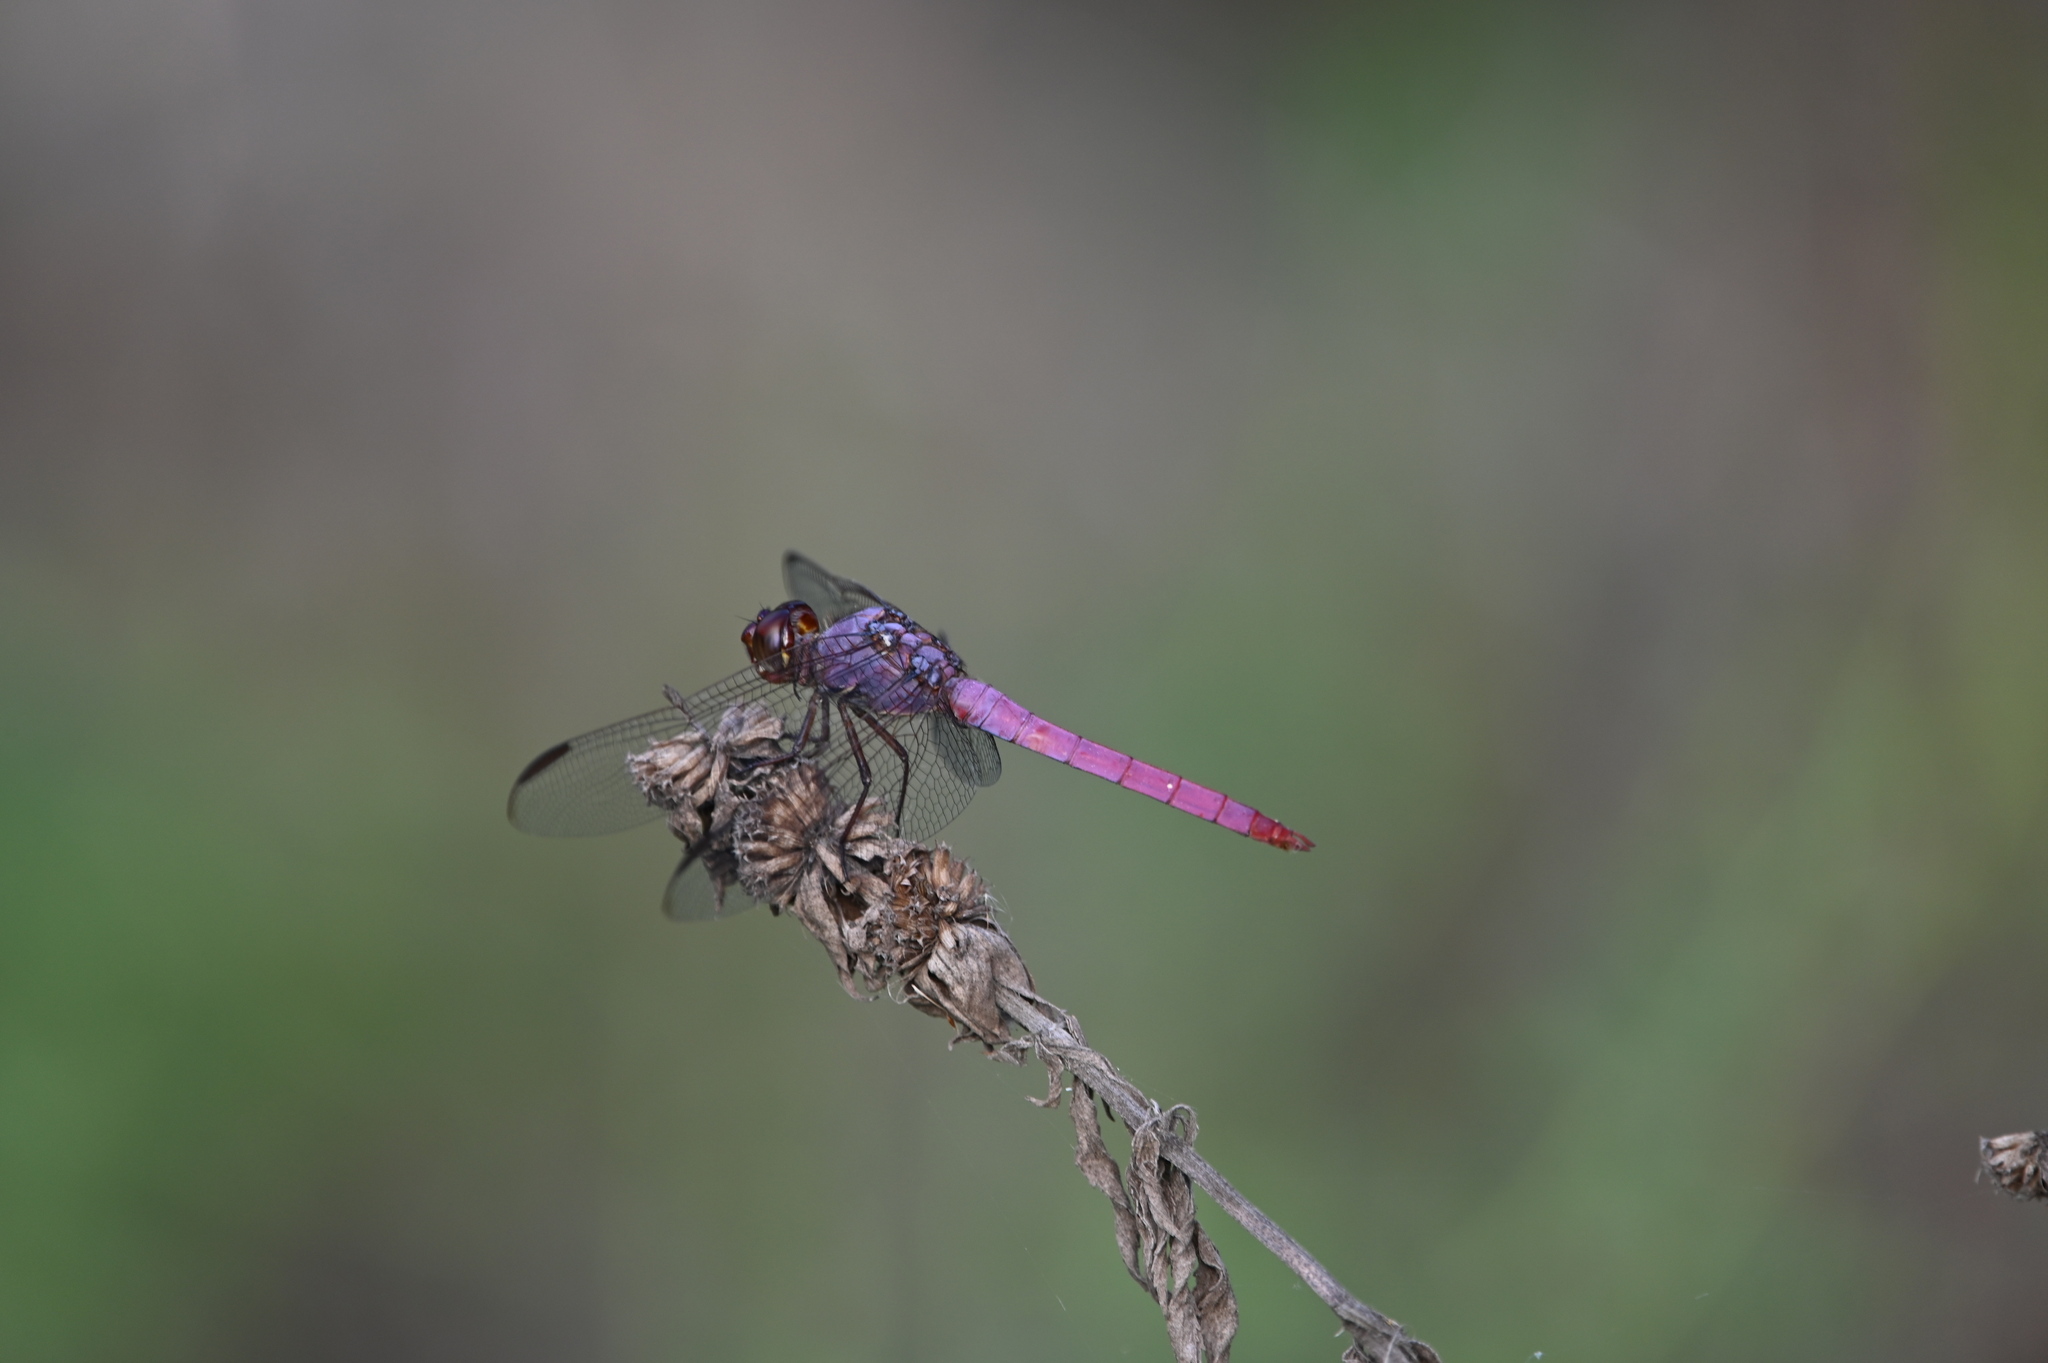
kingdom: Animalia
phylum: Arthropoda
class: Insecta
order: Odonata
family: Libellulidae
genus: Orthemis
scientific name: Orthemis ferruginea
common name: Roseate skimmer
